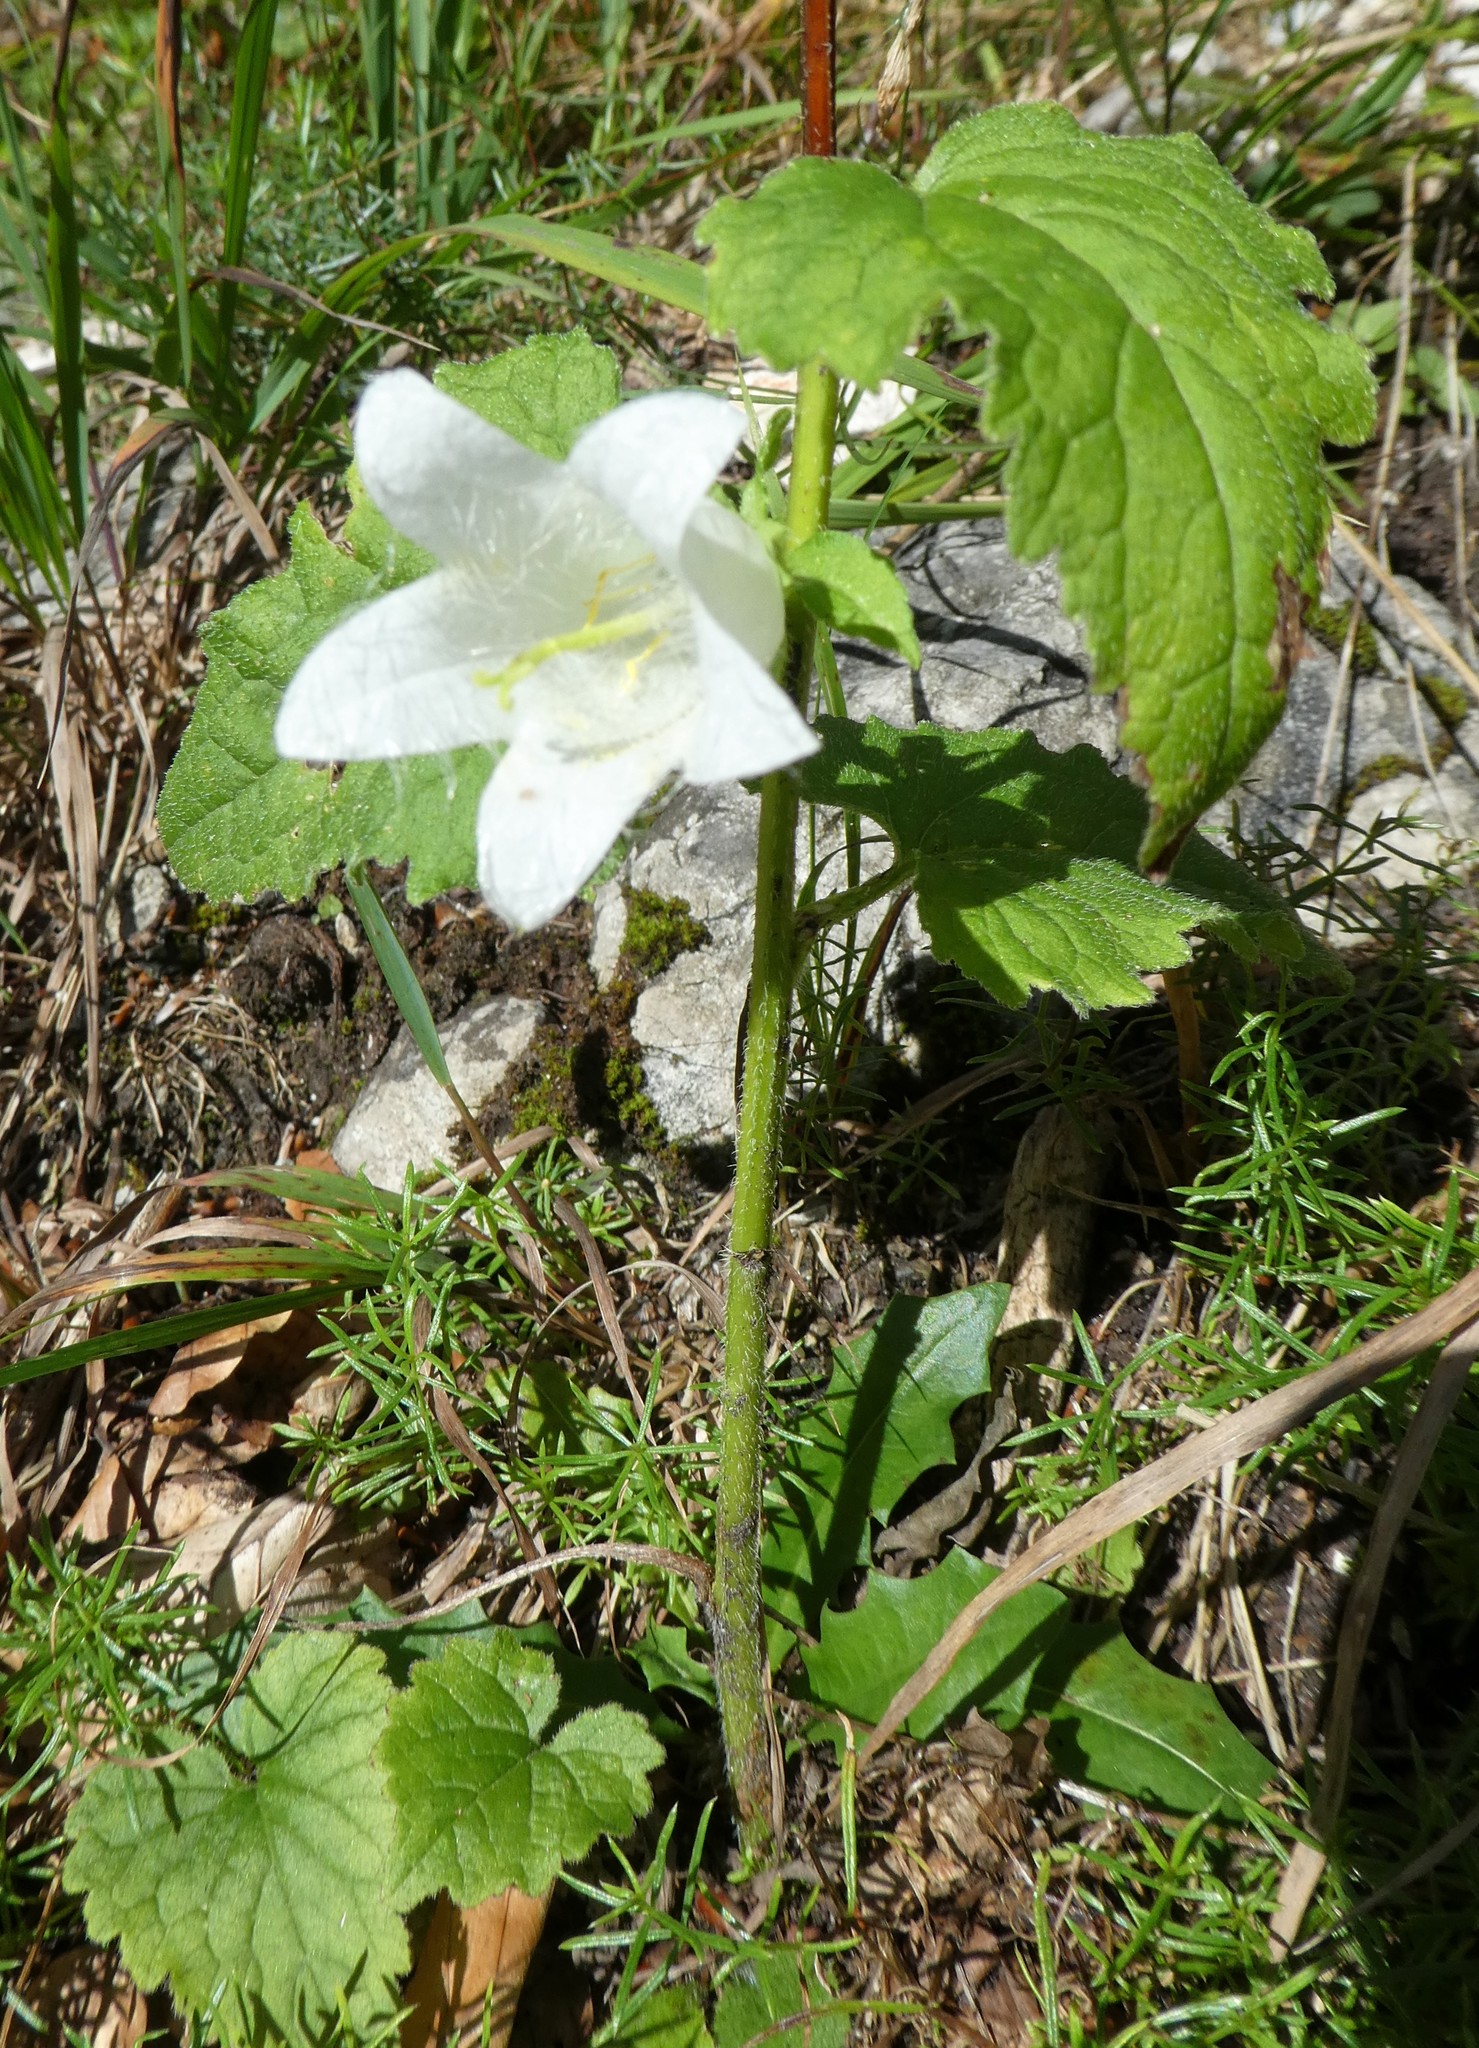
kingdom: Plantae
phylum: Tracheophyta
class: Magnoliopsida
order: Asterales
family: Campanulaceae
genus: Campanula
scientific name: Campanula trachelium
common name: Nettle-leaved bellflower
